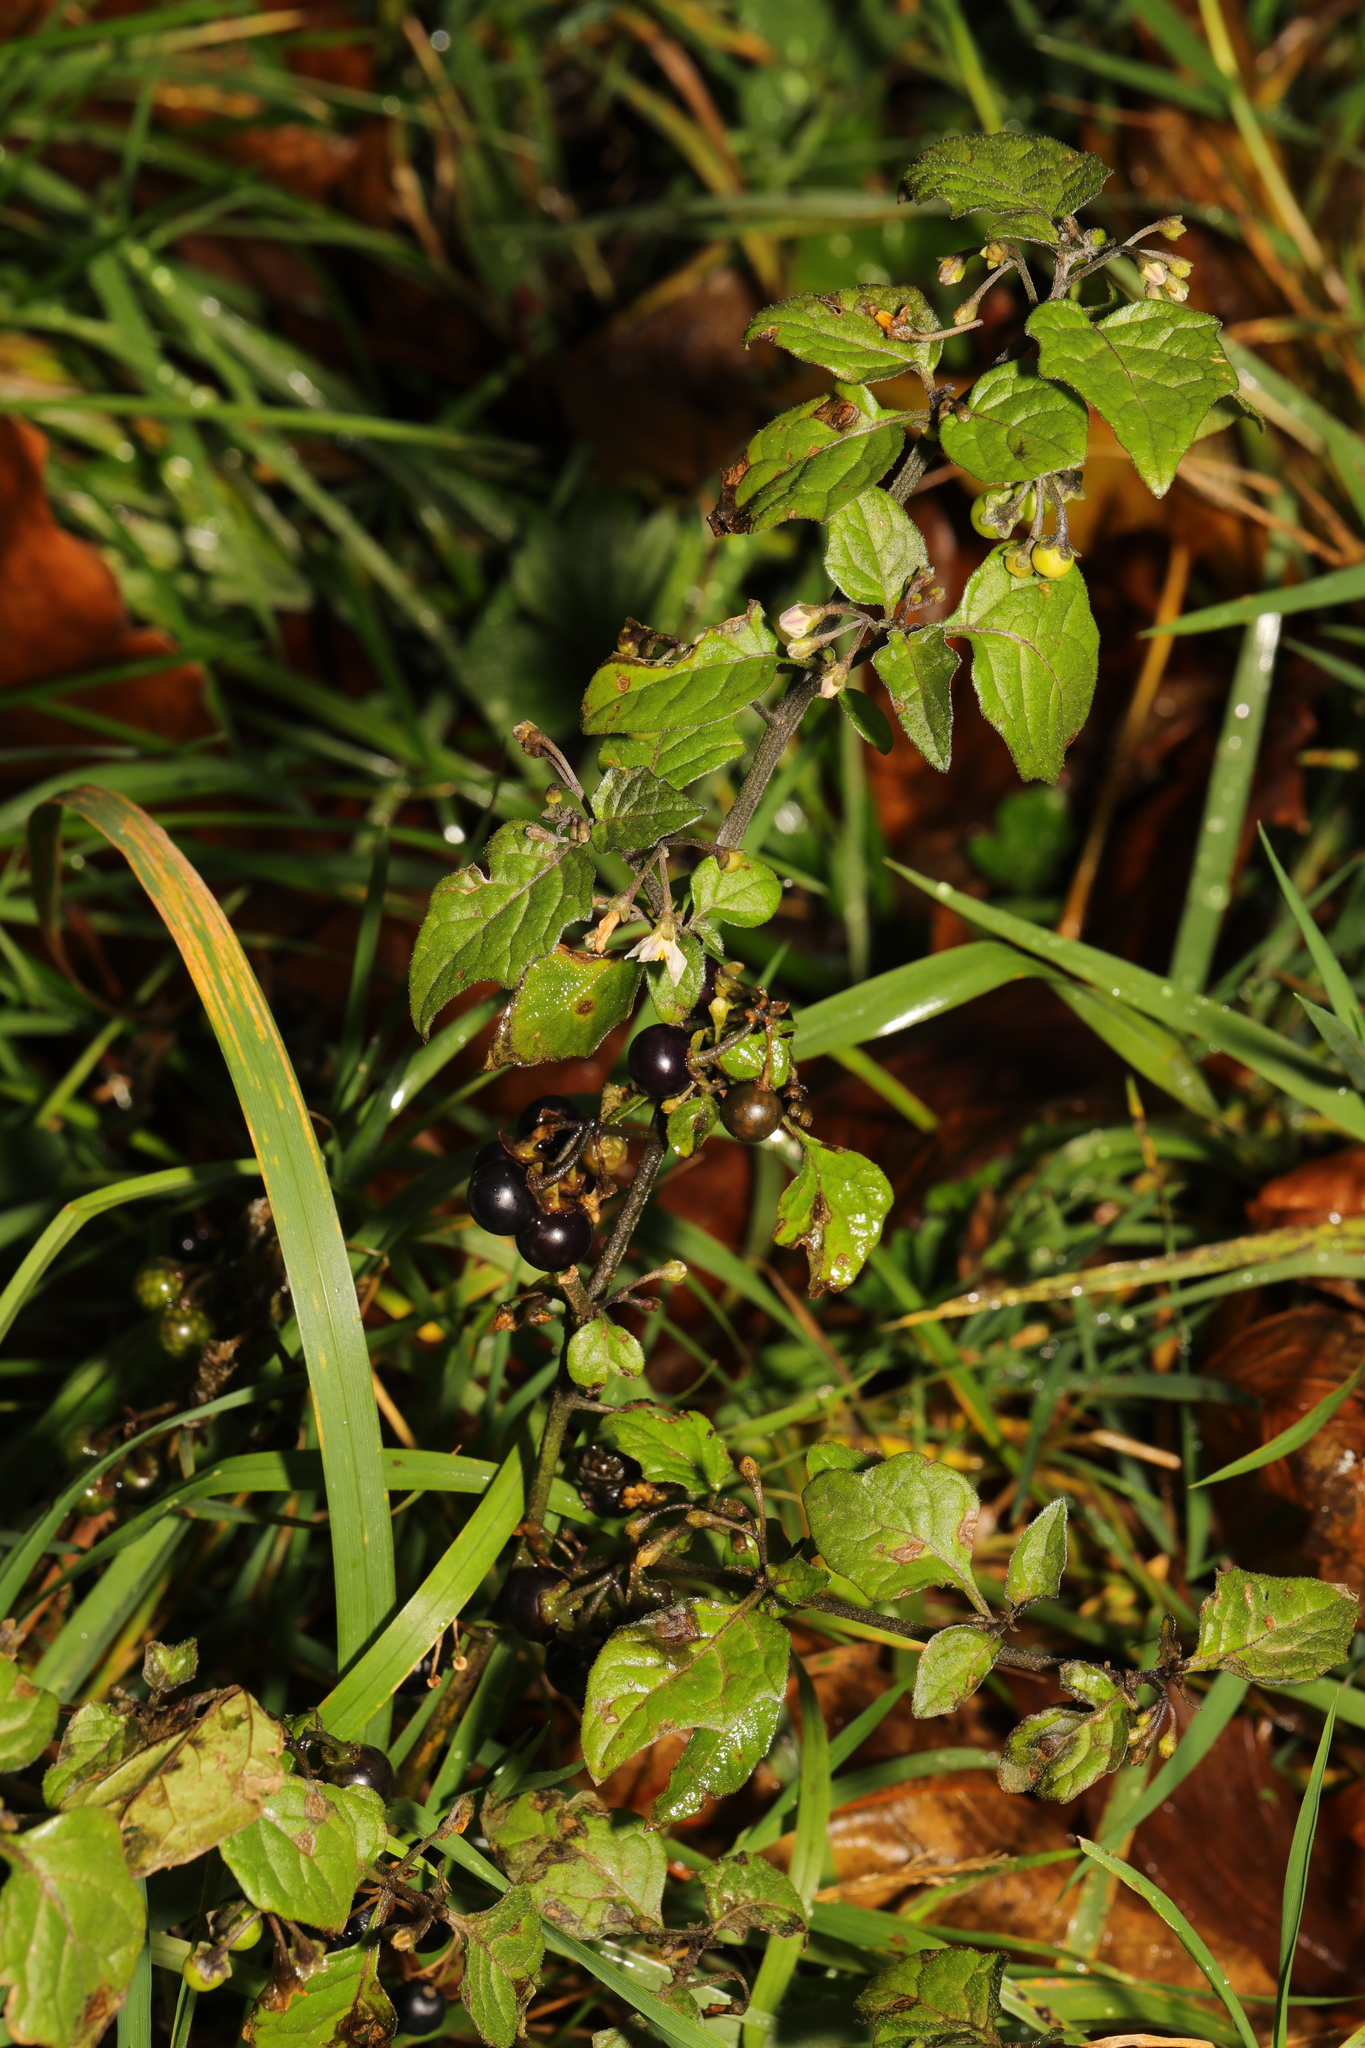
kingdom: Plantae
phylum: Tracheophyta
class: Magnoliopsida
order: Solanales
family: Solanaceae
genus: Solanum
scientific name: Solanum nigrum
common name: Black nightshade
